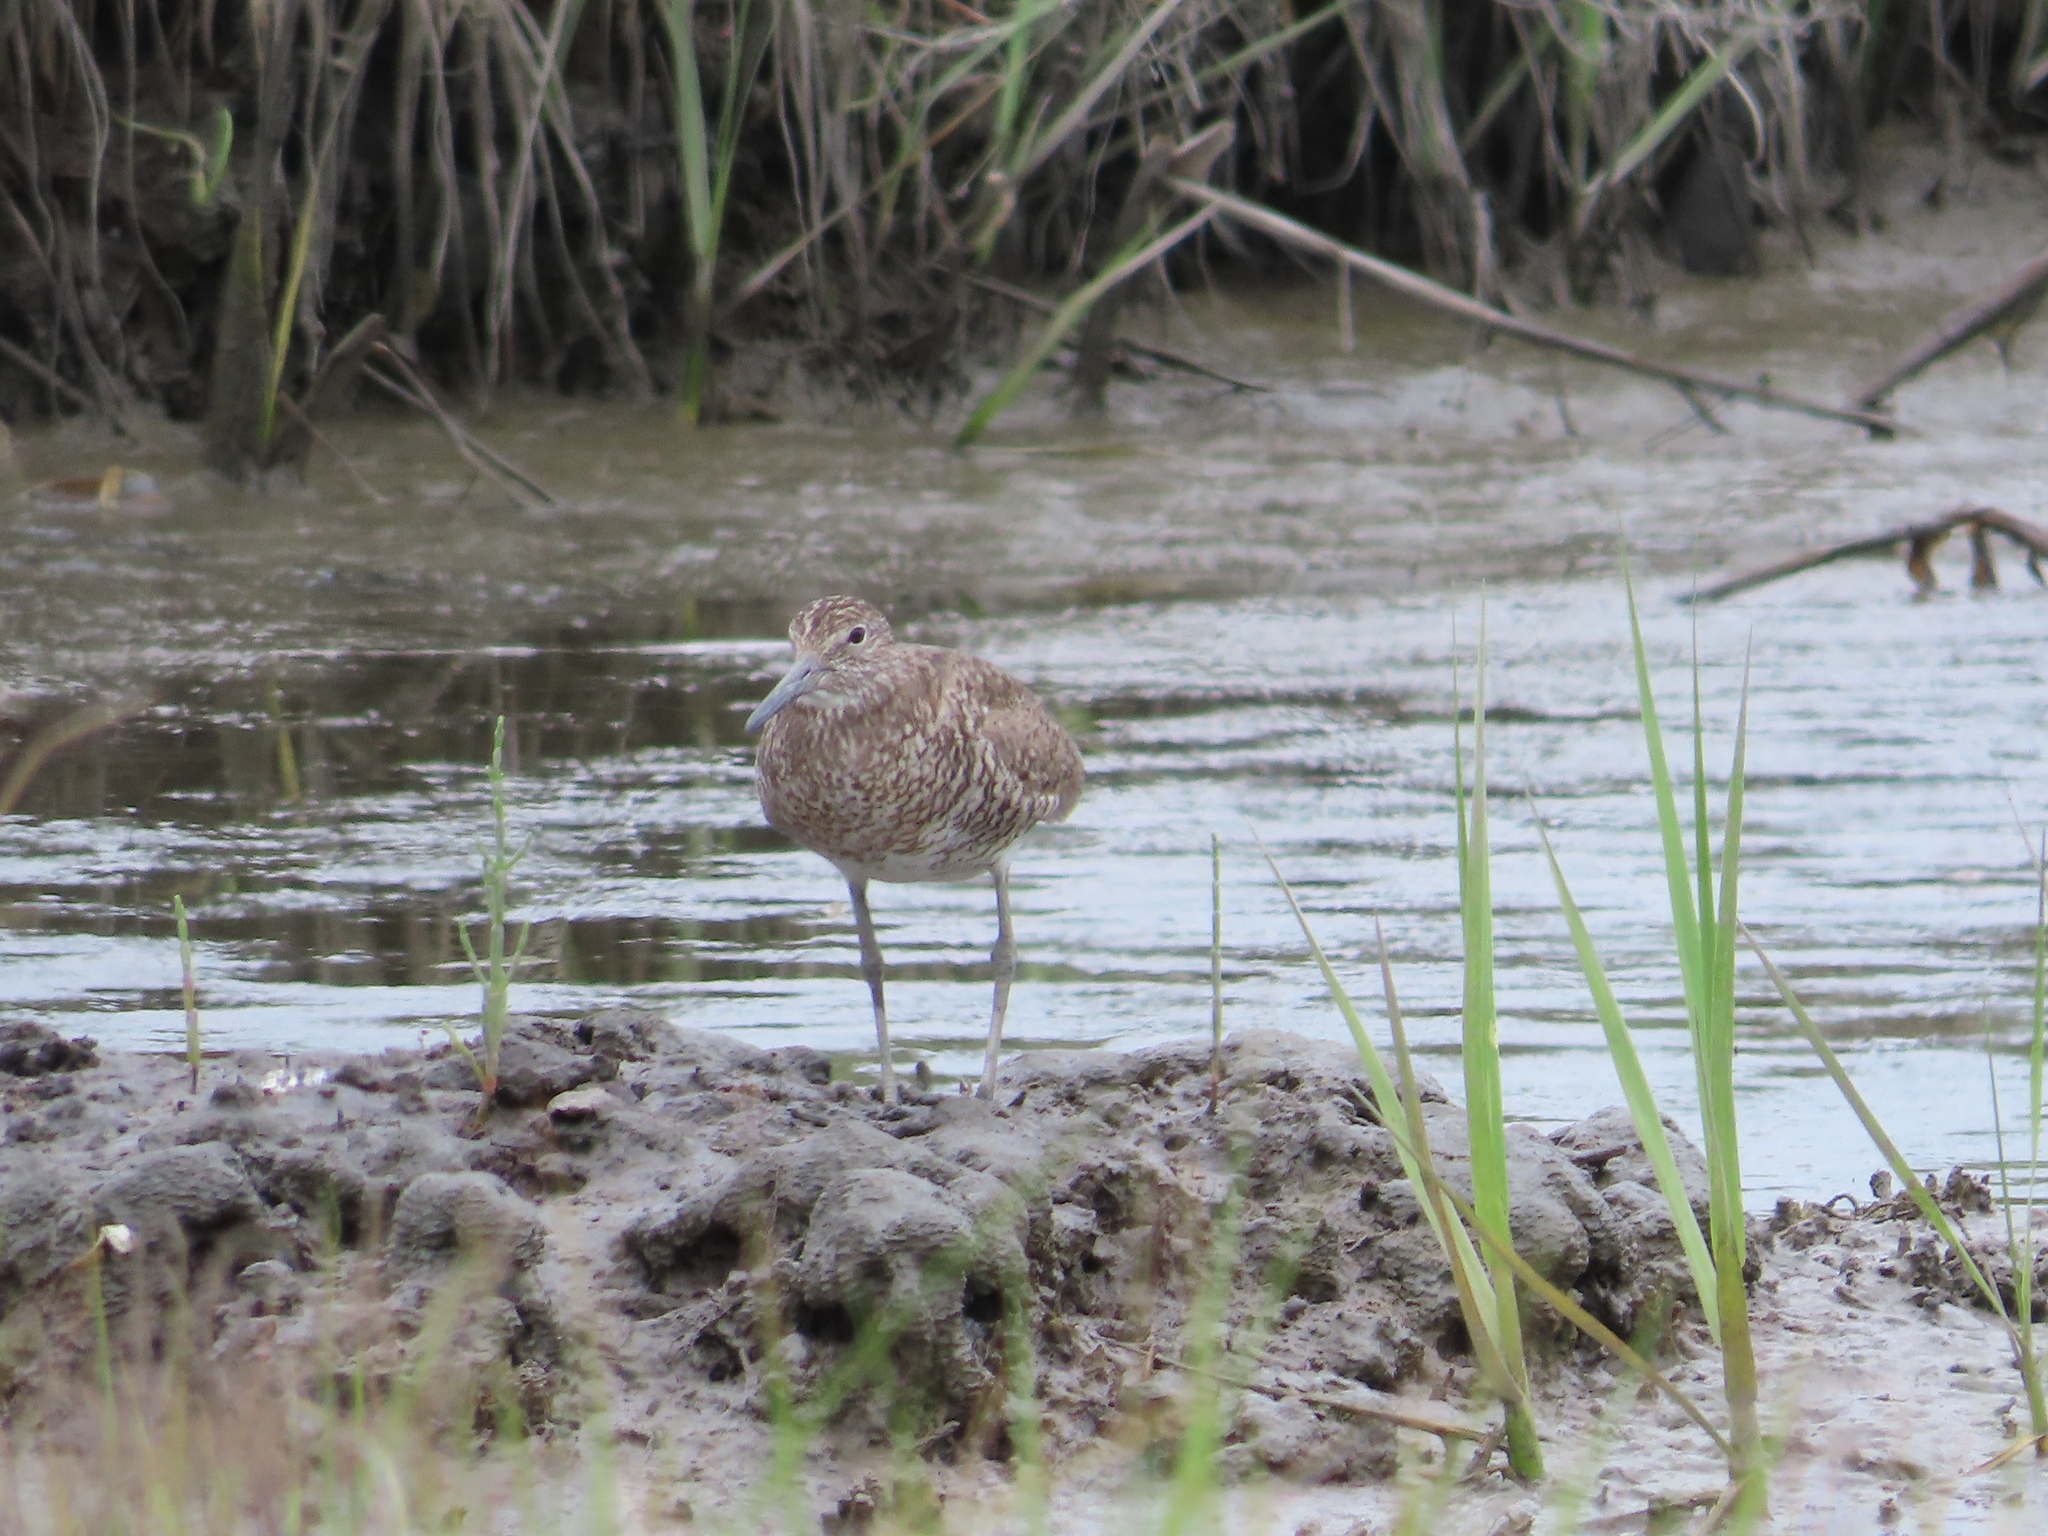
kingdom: Animalia
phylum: Chordata
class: Aves
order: Charadriiformes
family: Scolopacidae
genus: Tringa
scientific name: Tringa semipalmata
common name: Willet
